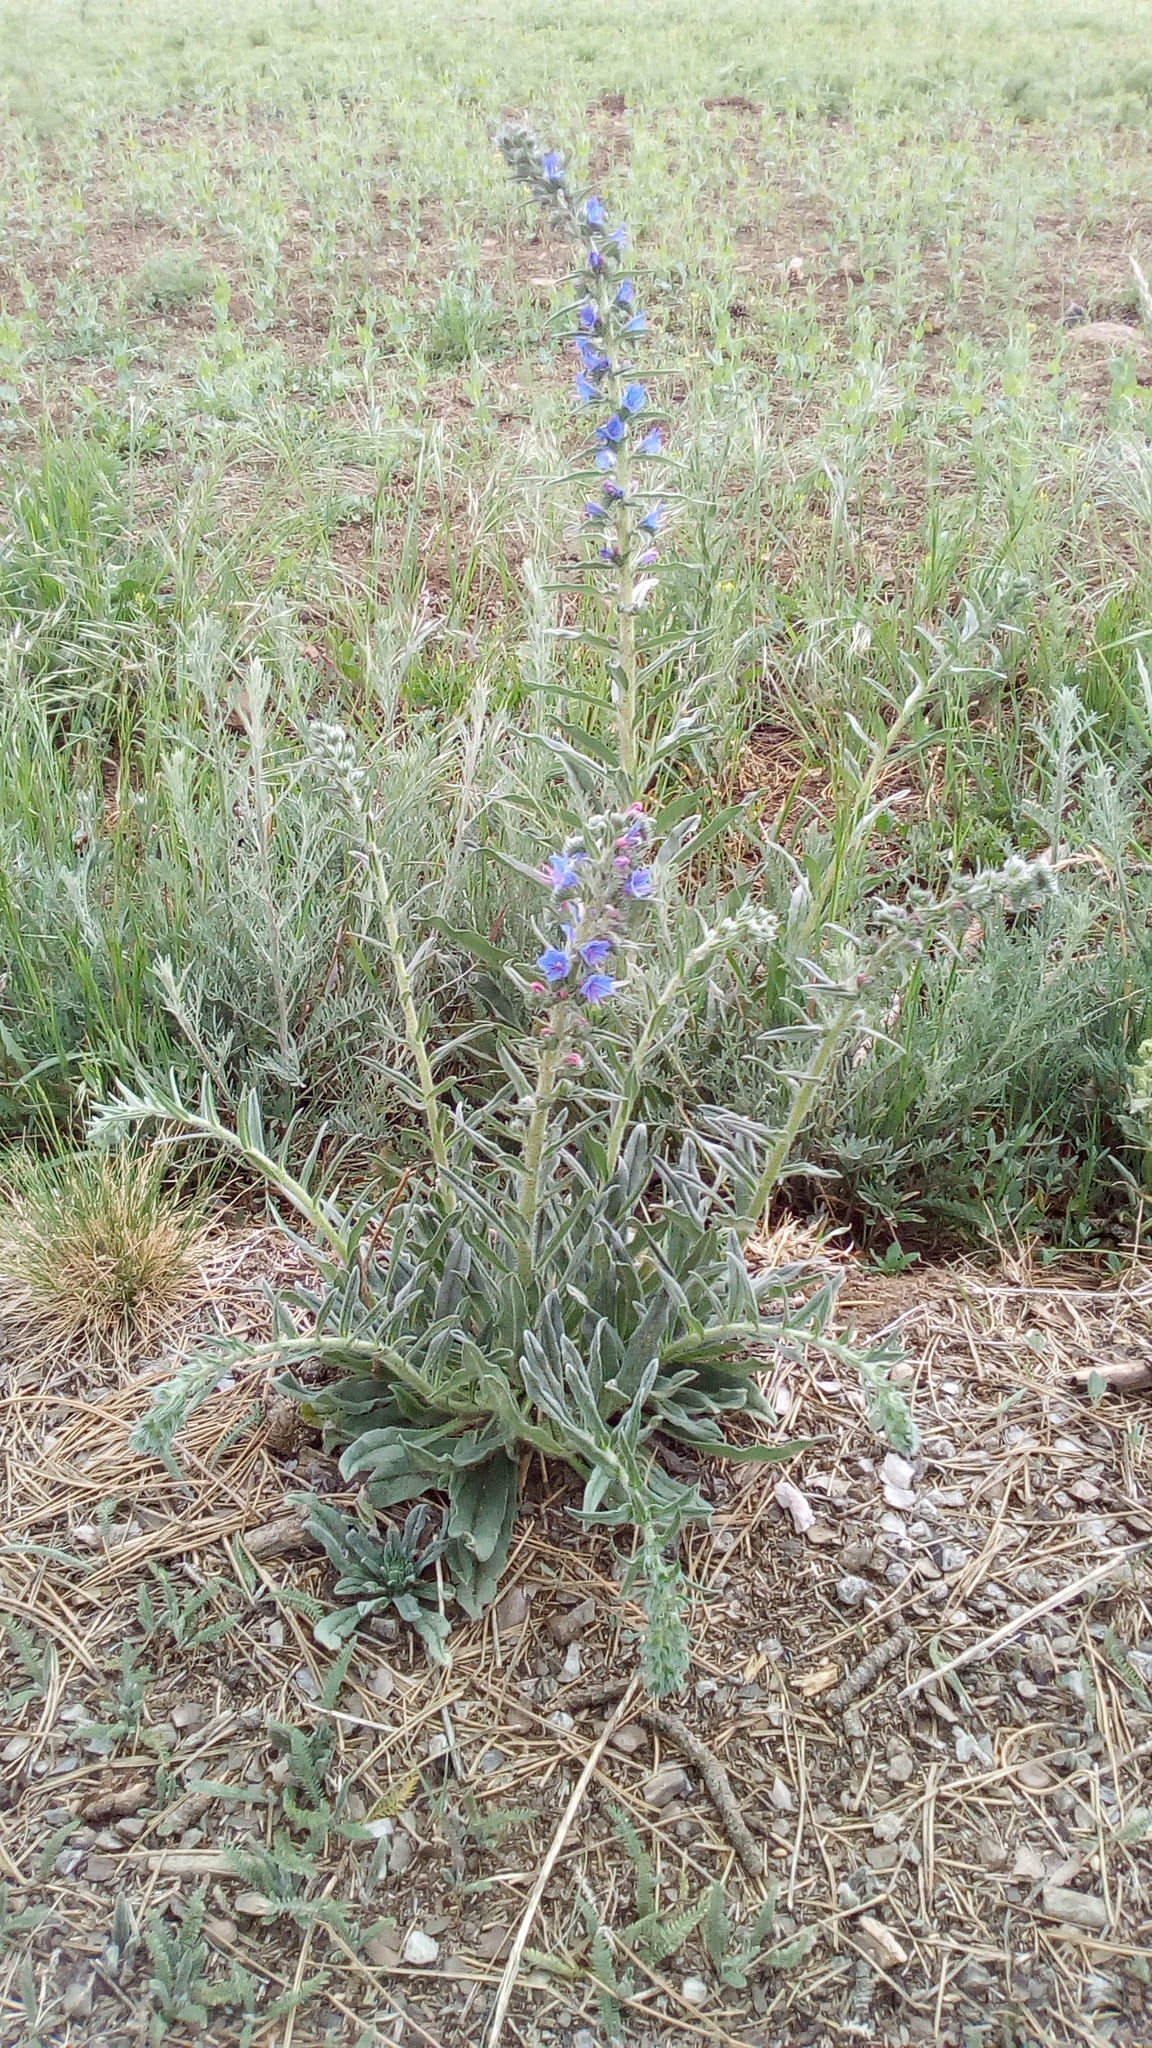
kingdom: Plantae
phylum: Tracheophyta
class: Magnoliopsida
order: Boraginales
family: Boraginaceae
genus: Echium
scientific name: Echium vulgare
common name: Common viper's bugloss
